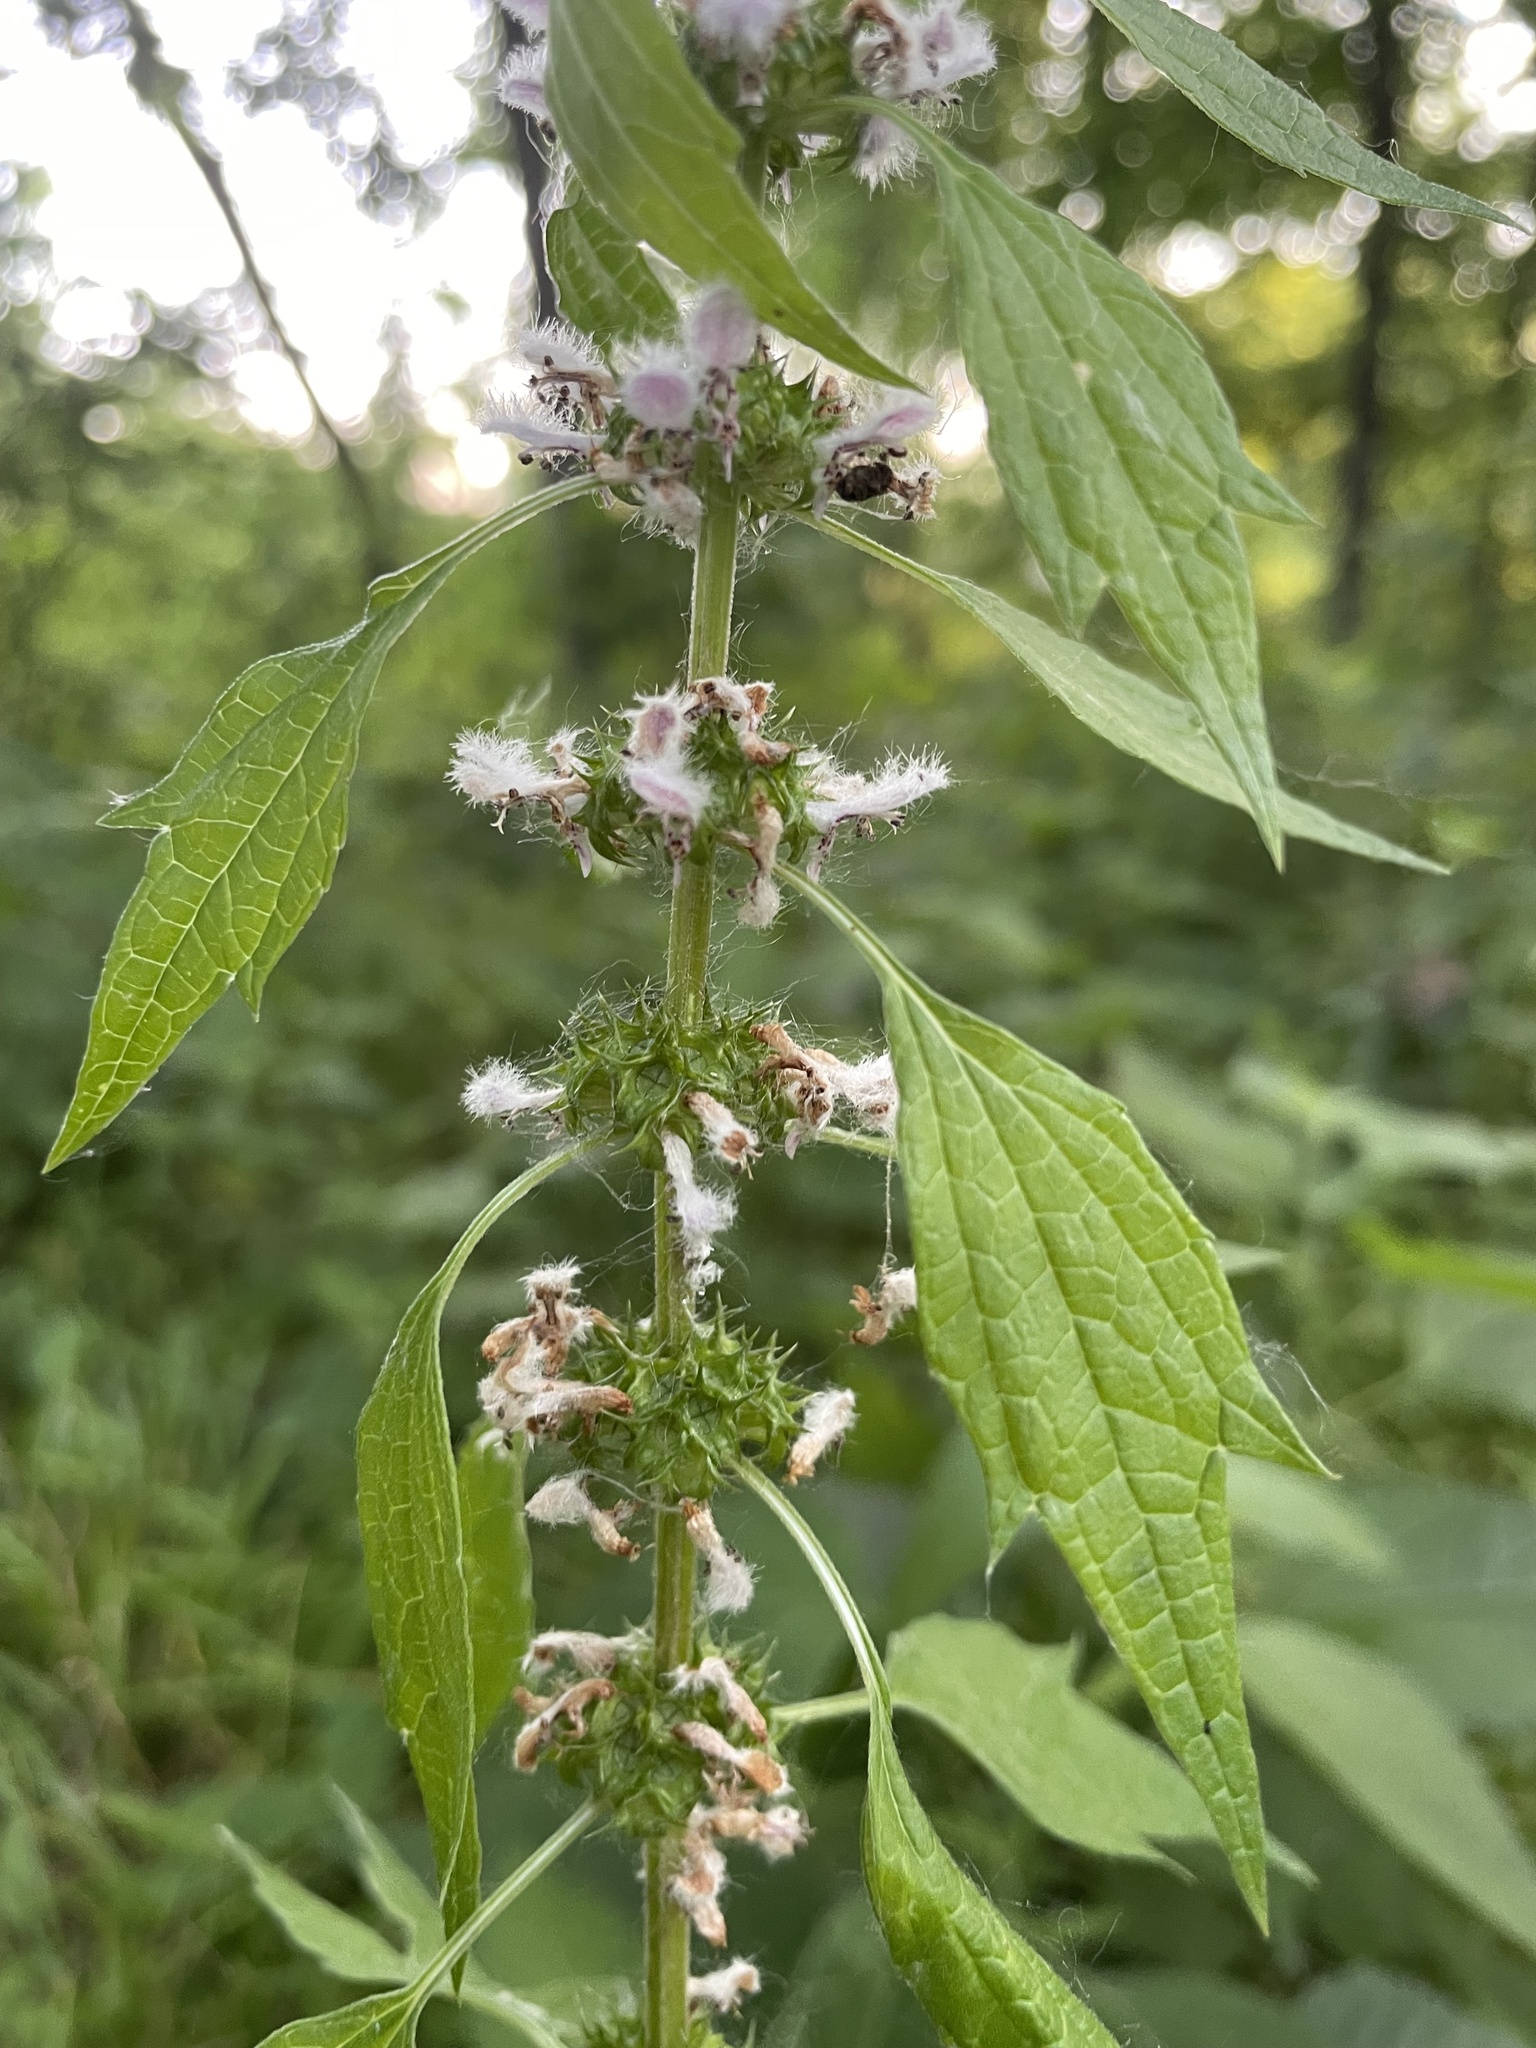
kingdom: Plantae
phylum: Tracheophyta
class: Magnoliopsida
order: Lamiales
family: Lamiaceae
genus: Leonurus
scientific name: Leonurus cardiaca
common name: Motherwort
